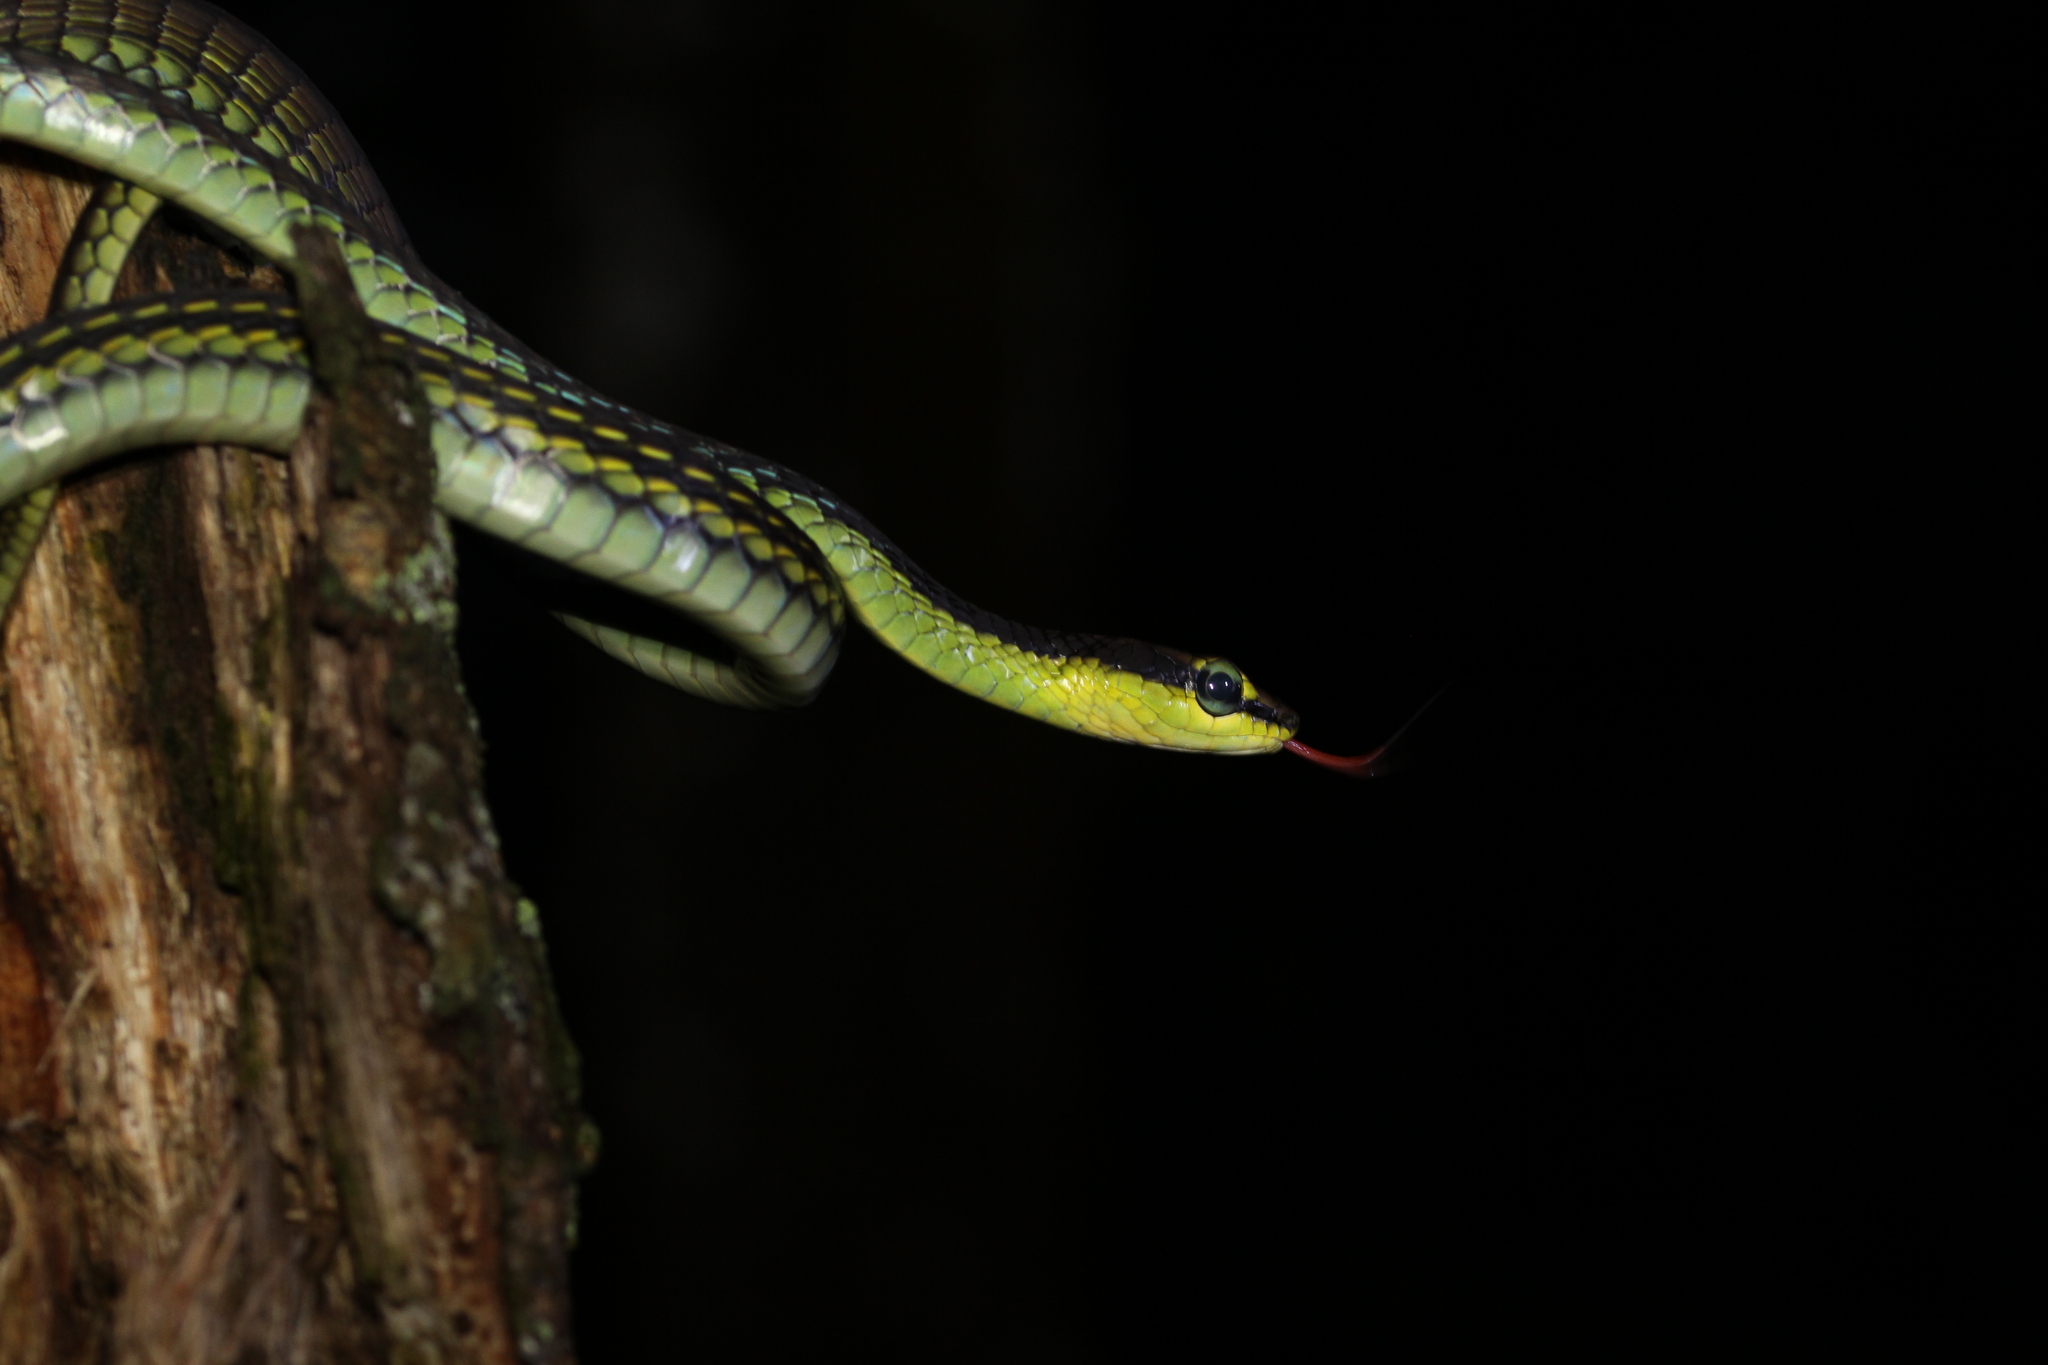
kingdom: Animalia
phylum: Chordata
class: Squamata
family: Colubridae
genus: Dendrelaphis
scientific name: Dendrelaphis formosus
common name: Elegant bronzeback
